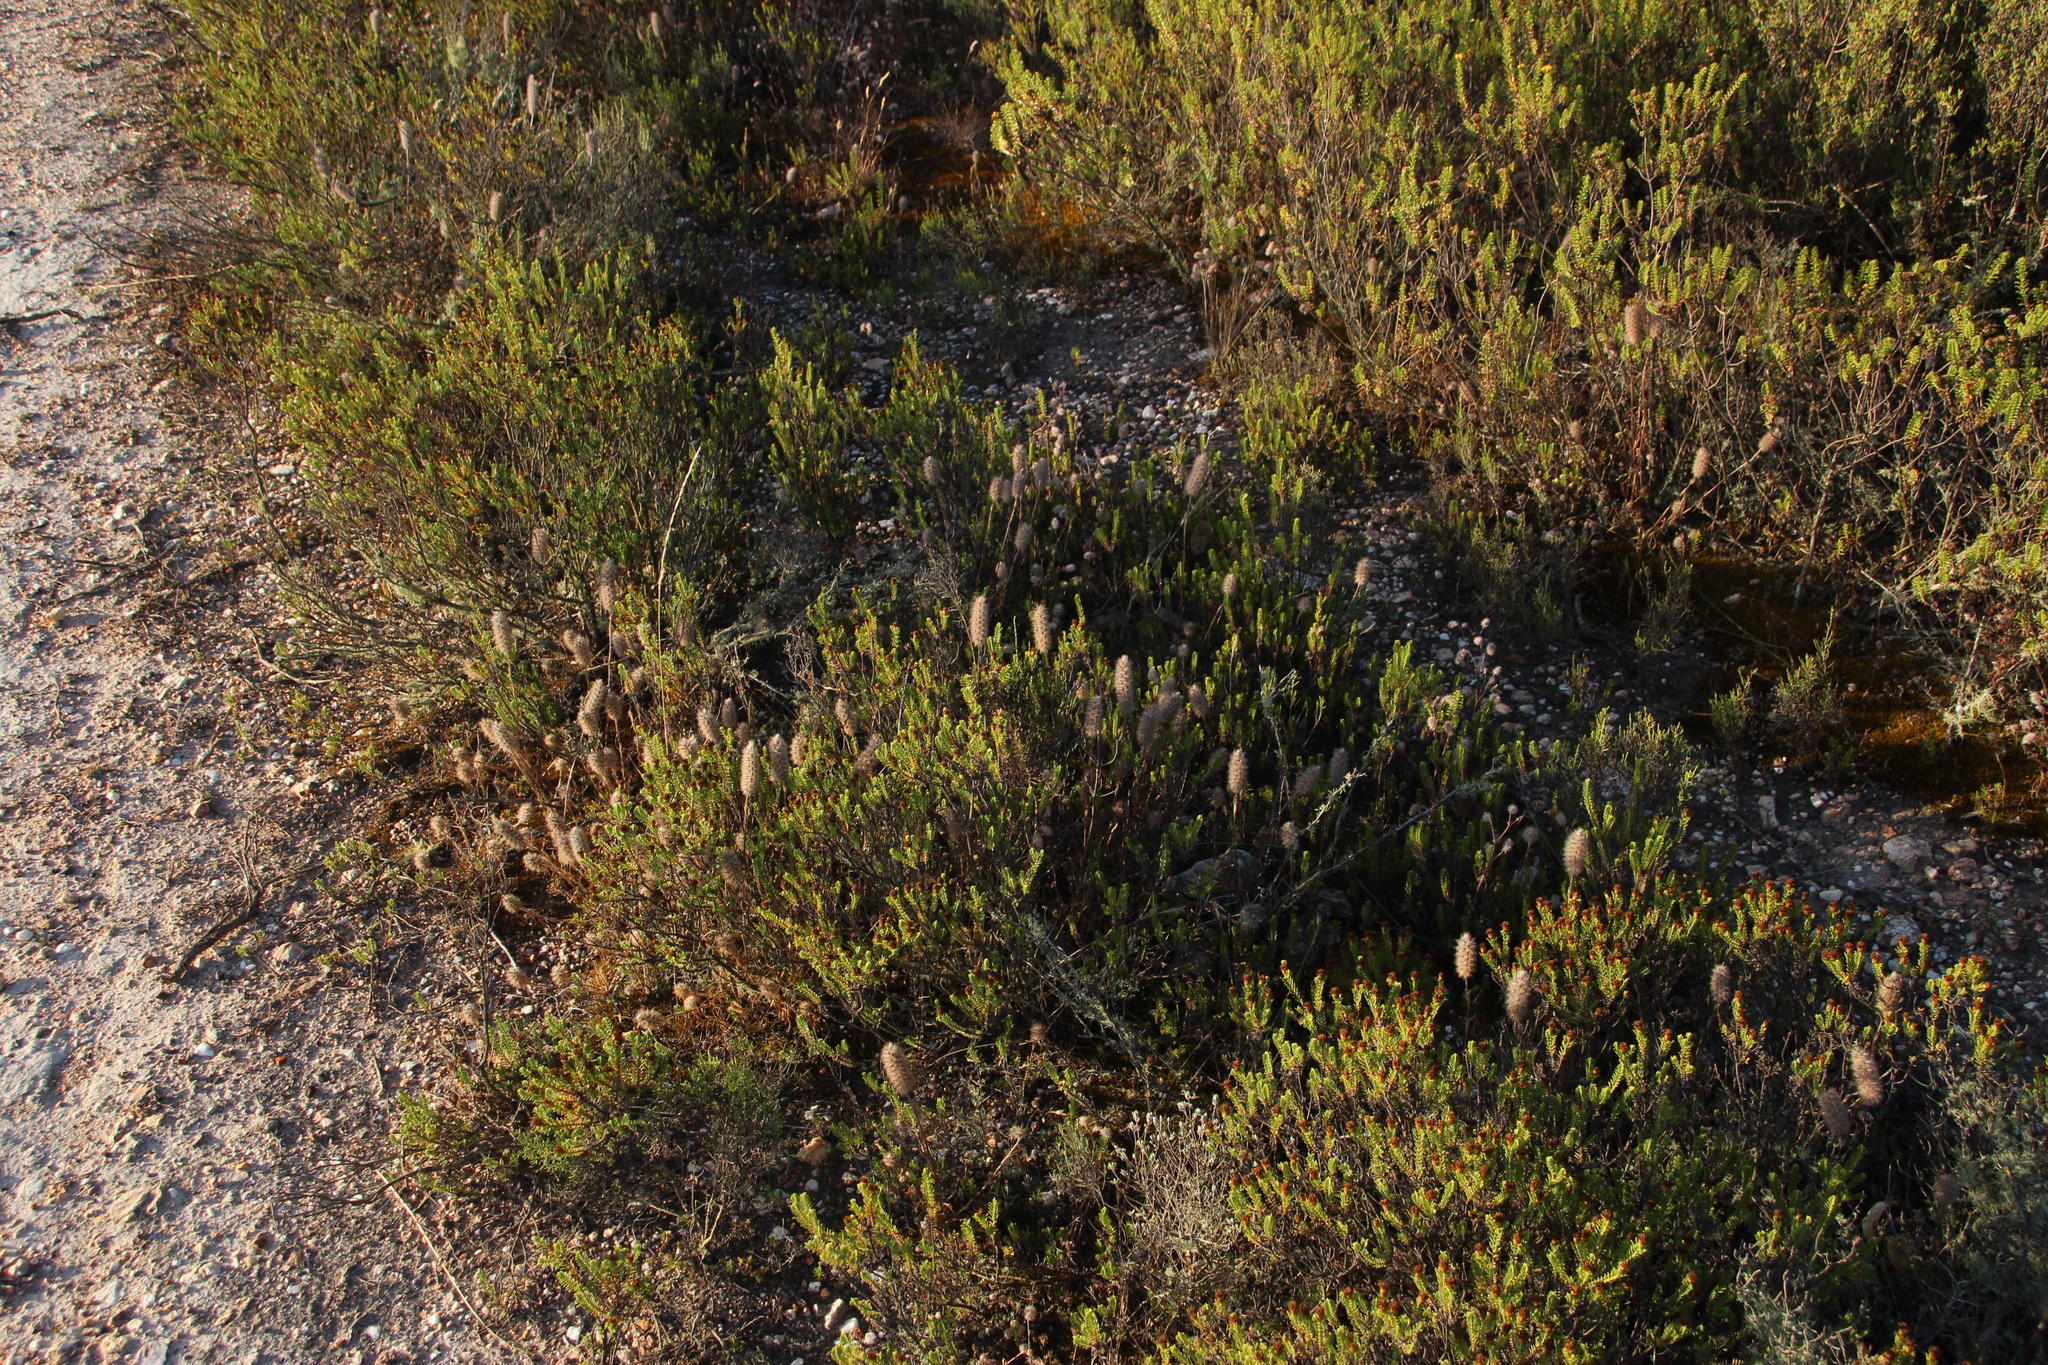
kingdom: Plantae
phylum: Tracheophyta
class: Magnoliopsida
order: Fabales
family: Fabaceae
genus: Trifolium
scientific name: Trifolium angustifolium
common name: Narrow clover
